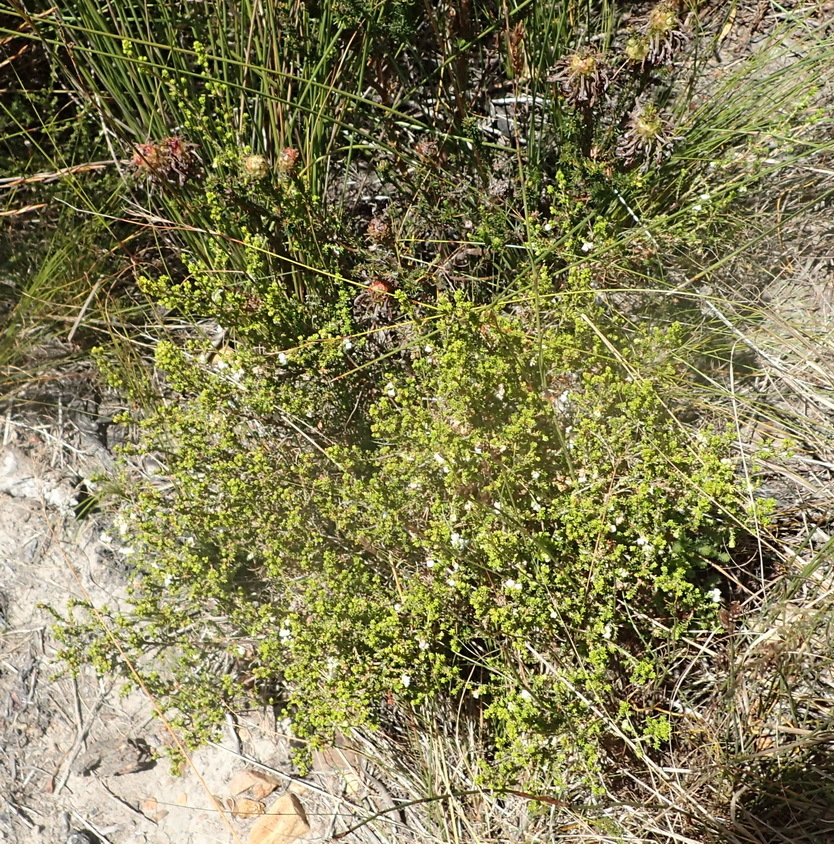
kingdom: Plantae
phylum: Tracheophyta
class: Magnoliopsida
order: Ericales
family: Ericaceae
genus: Erica
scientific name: Erica formosa
